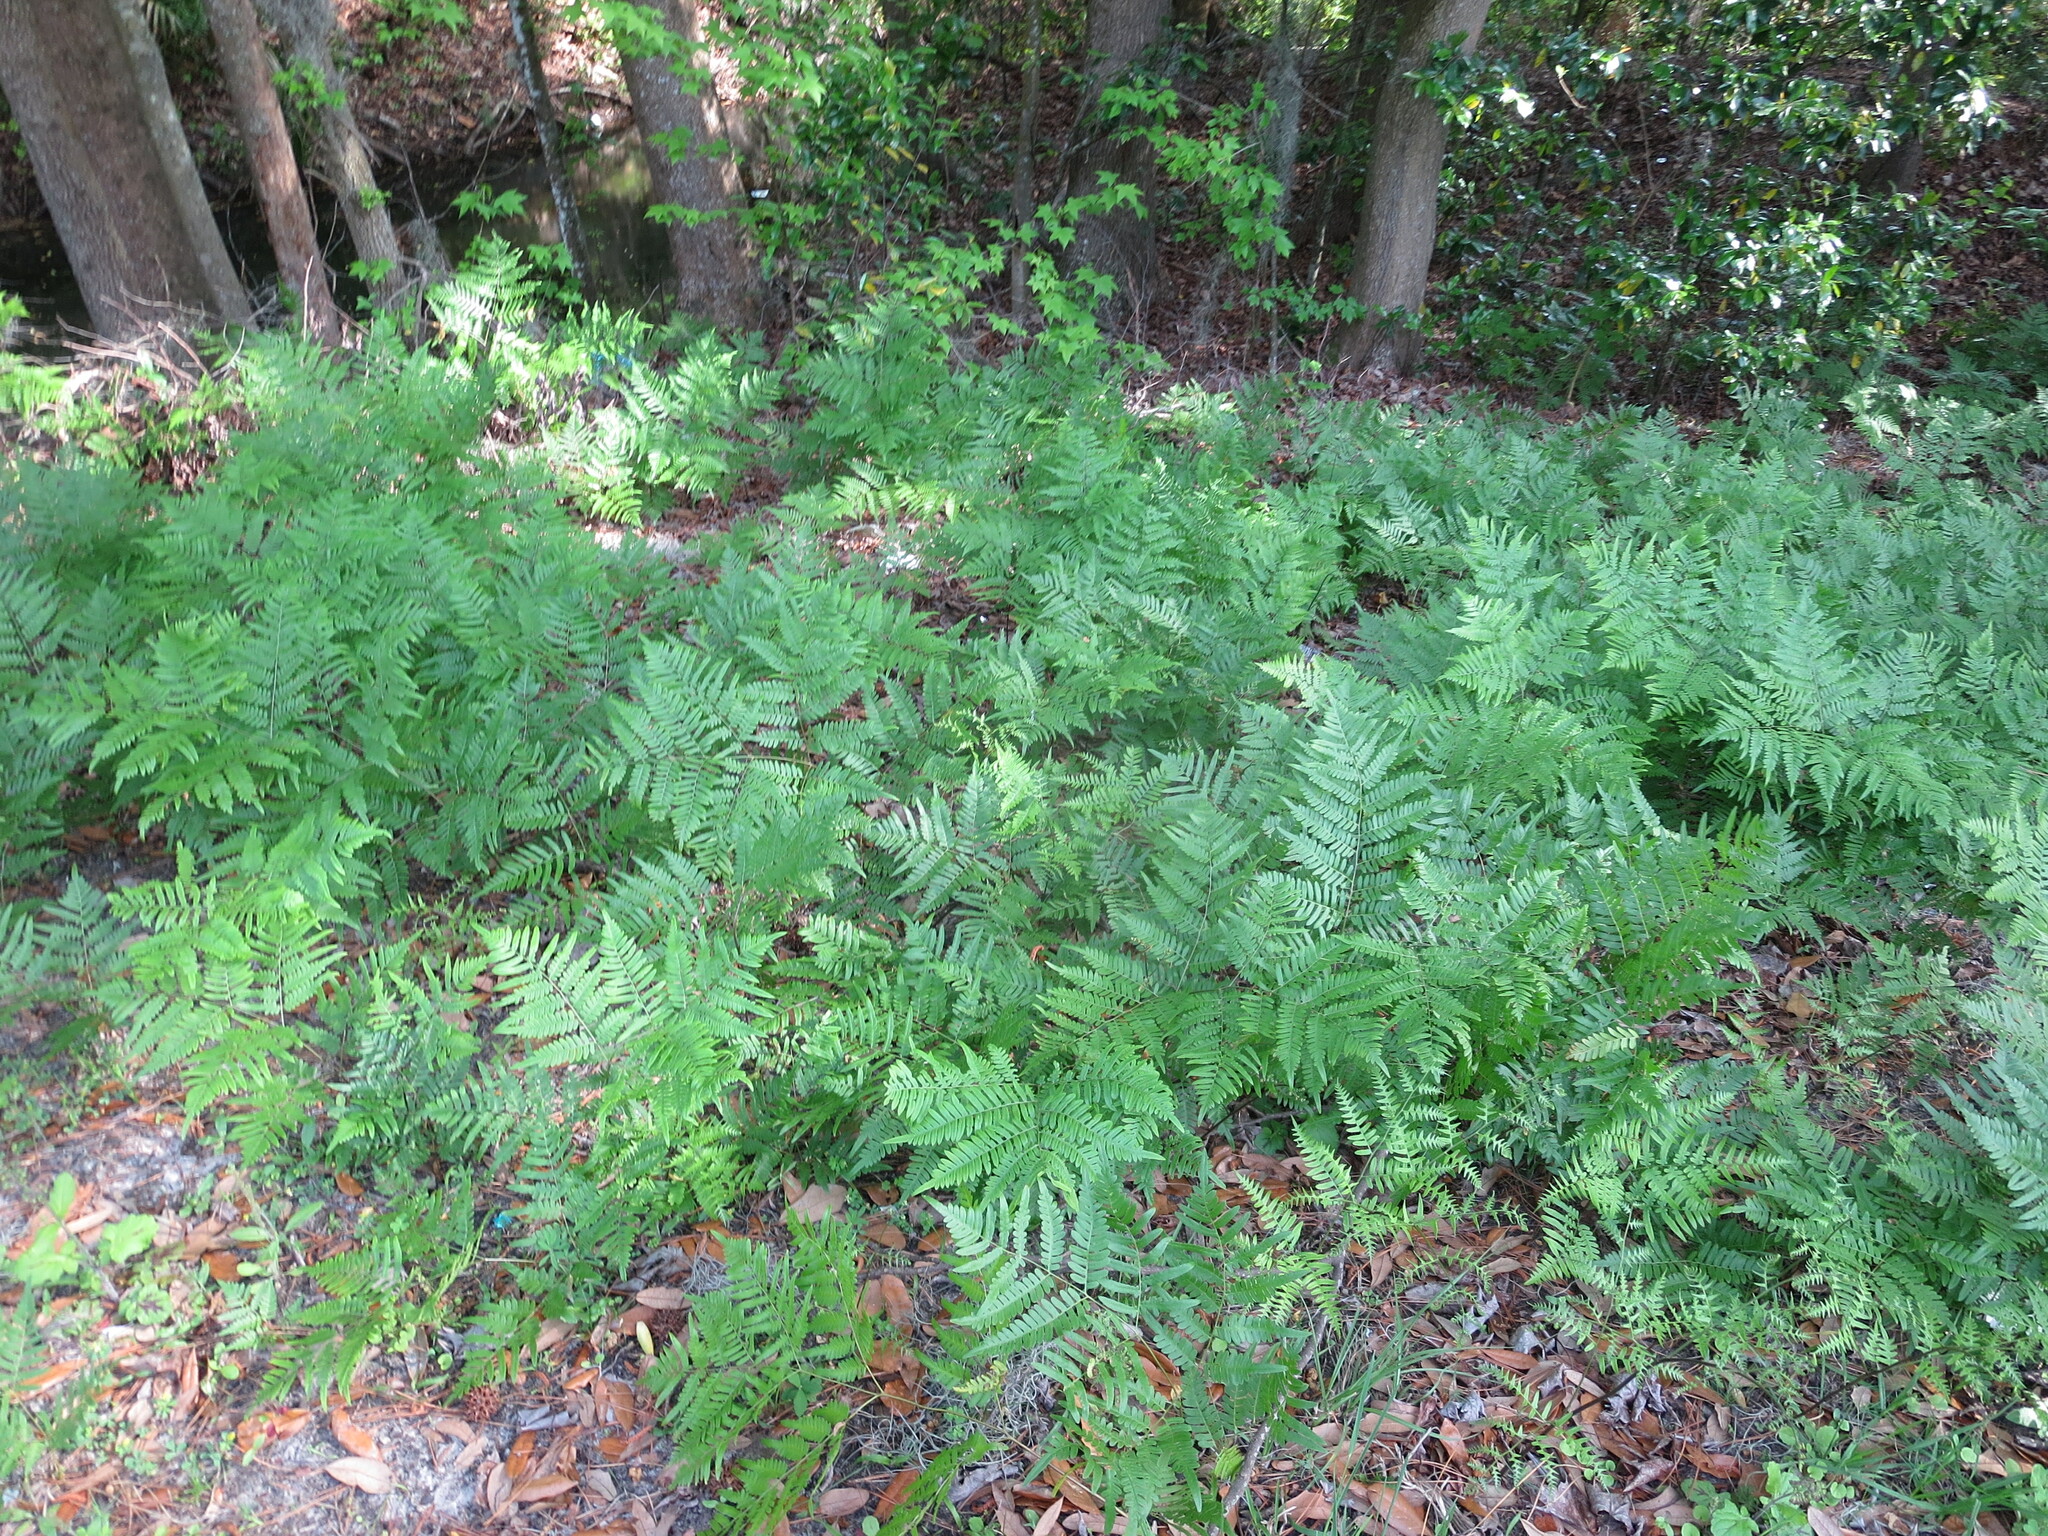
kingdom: Plantae
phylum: Tracheophyta
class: Polypodiopsida
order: Polypodiales
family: Dennstaedtiaceae
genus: Pteridium
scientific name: Pteridium aquilinum
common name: Bracken
